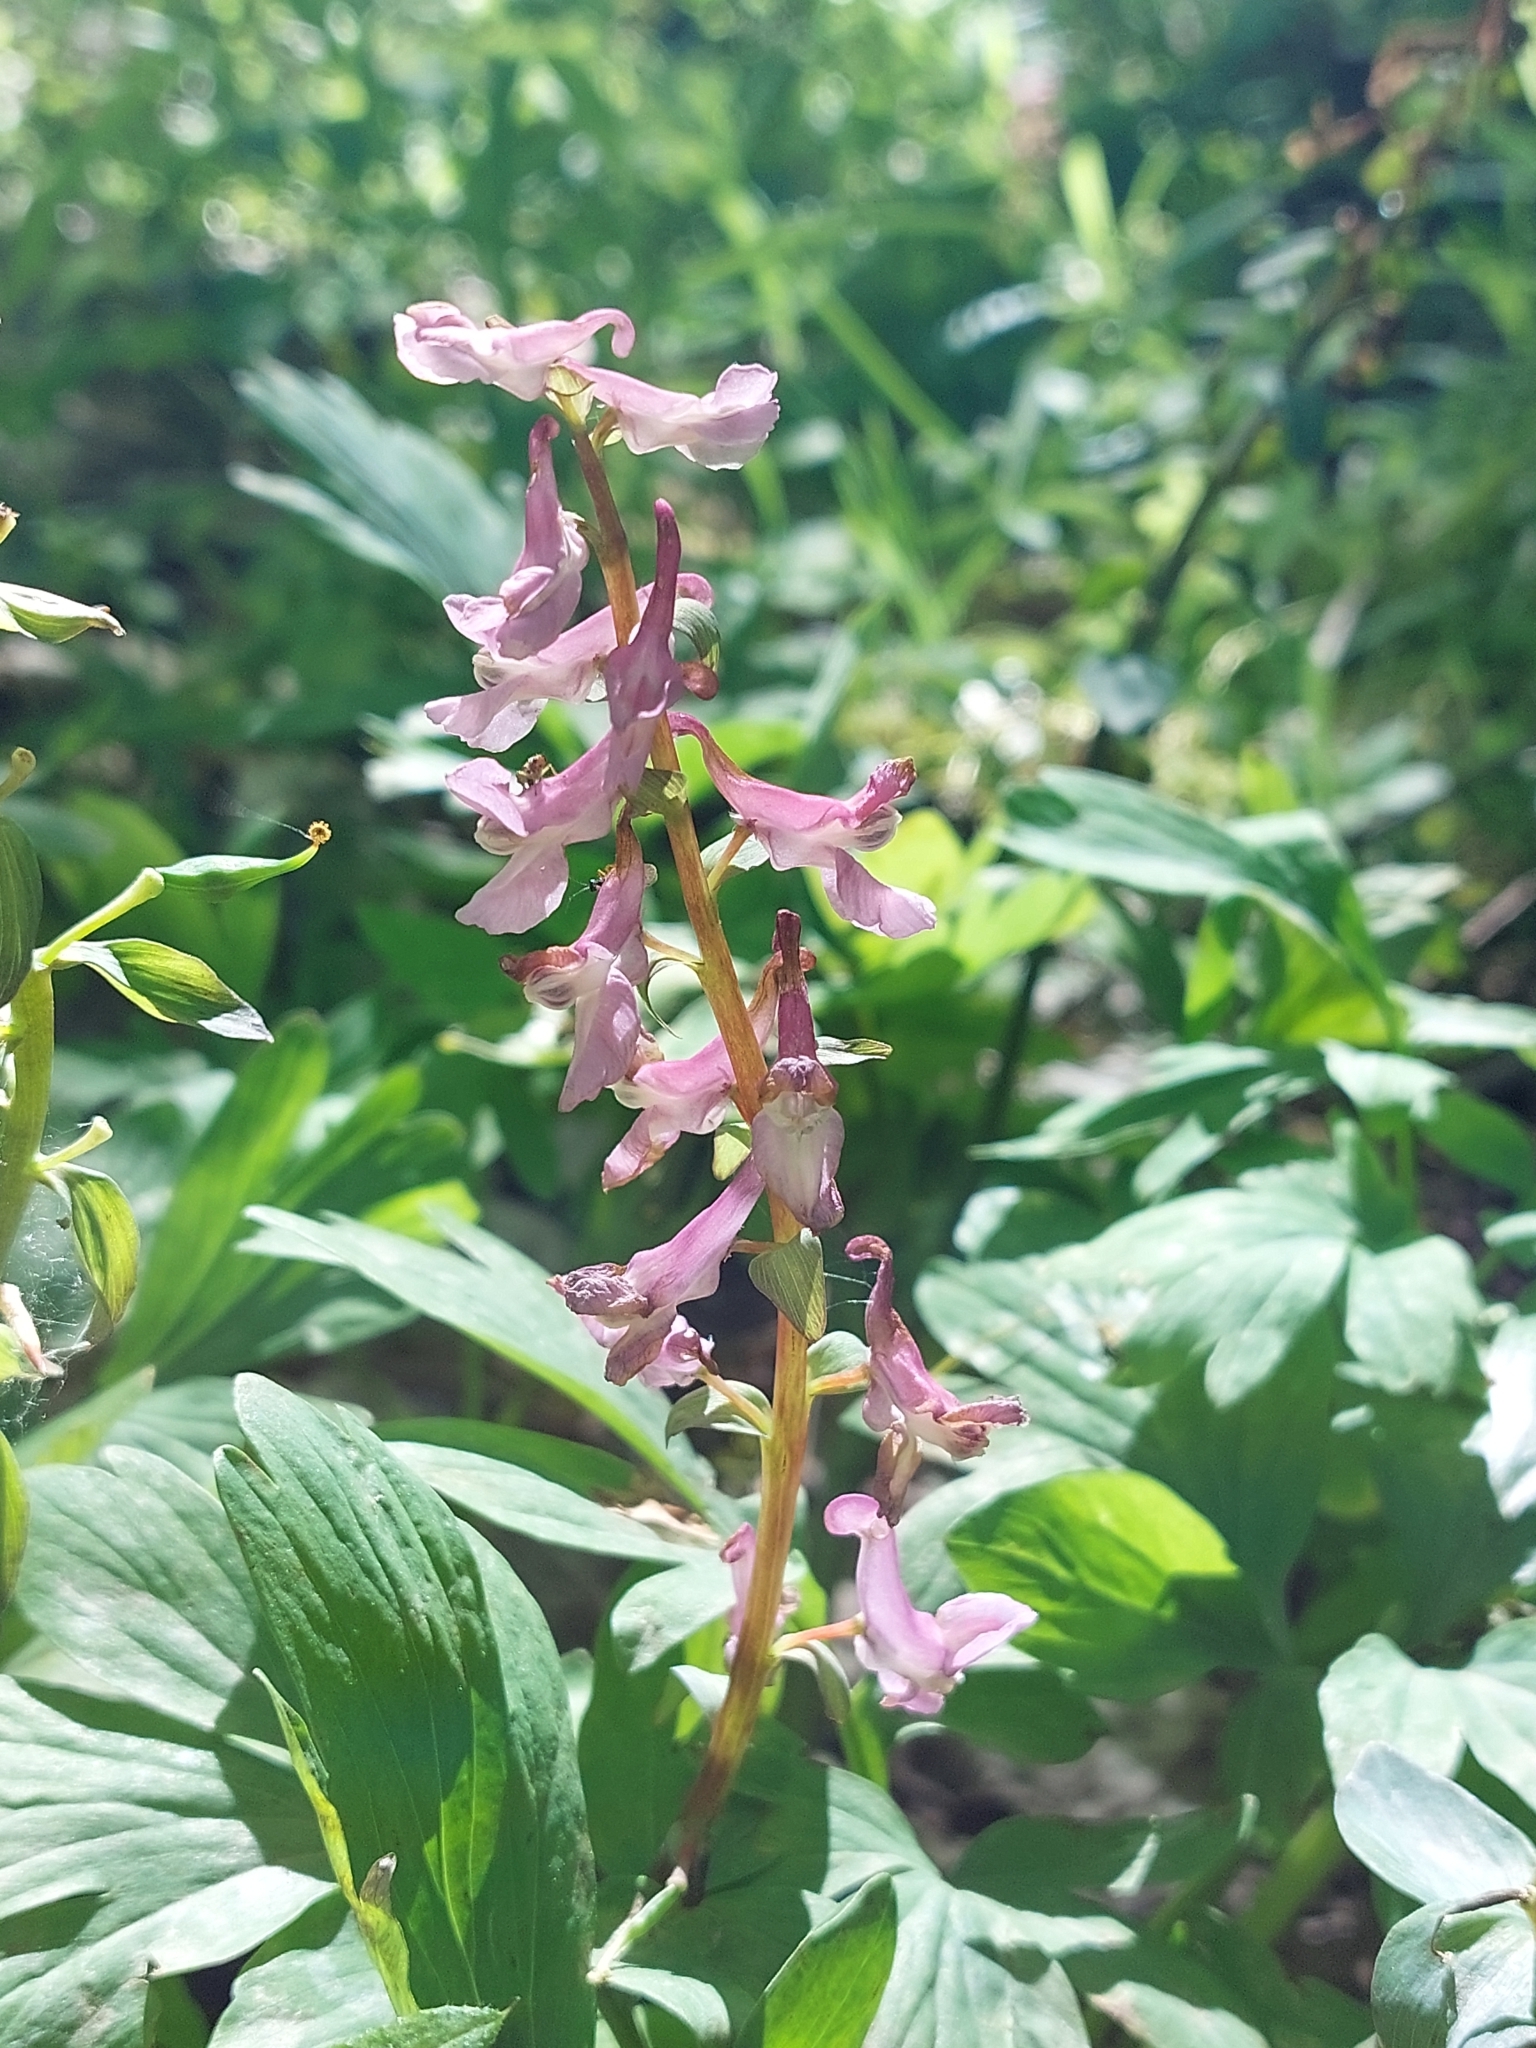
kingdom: Plantae
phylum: Tracheophyta
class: Magnoliopsida
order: Ranunculales
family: Papaveraceae
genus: Corydalis
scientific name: Corydalis cava
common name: Hollowroot
